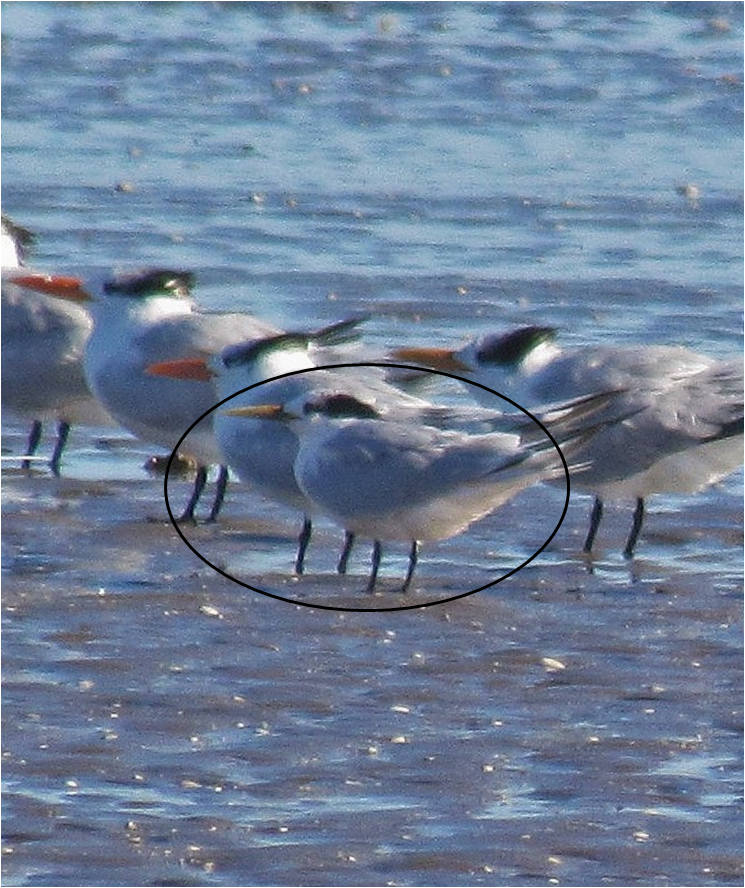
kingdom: Animalia
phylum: Chordata
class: Aves
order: Charadriiformes
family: Laridae
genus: Thalasseus
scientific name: Thalasseus sandvicensis
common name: Sandwich tern
